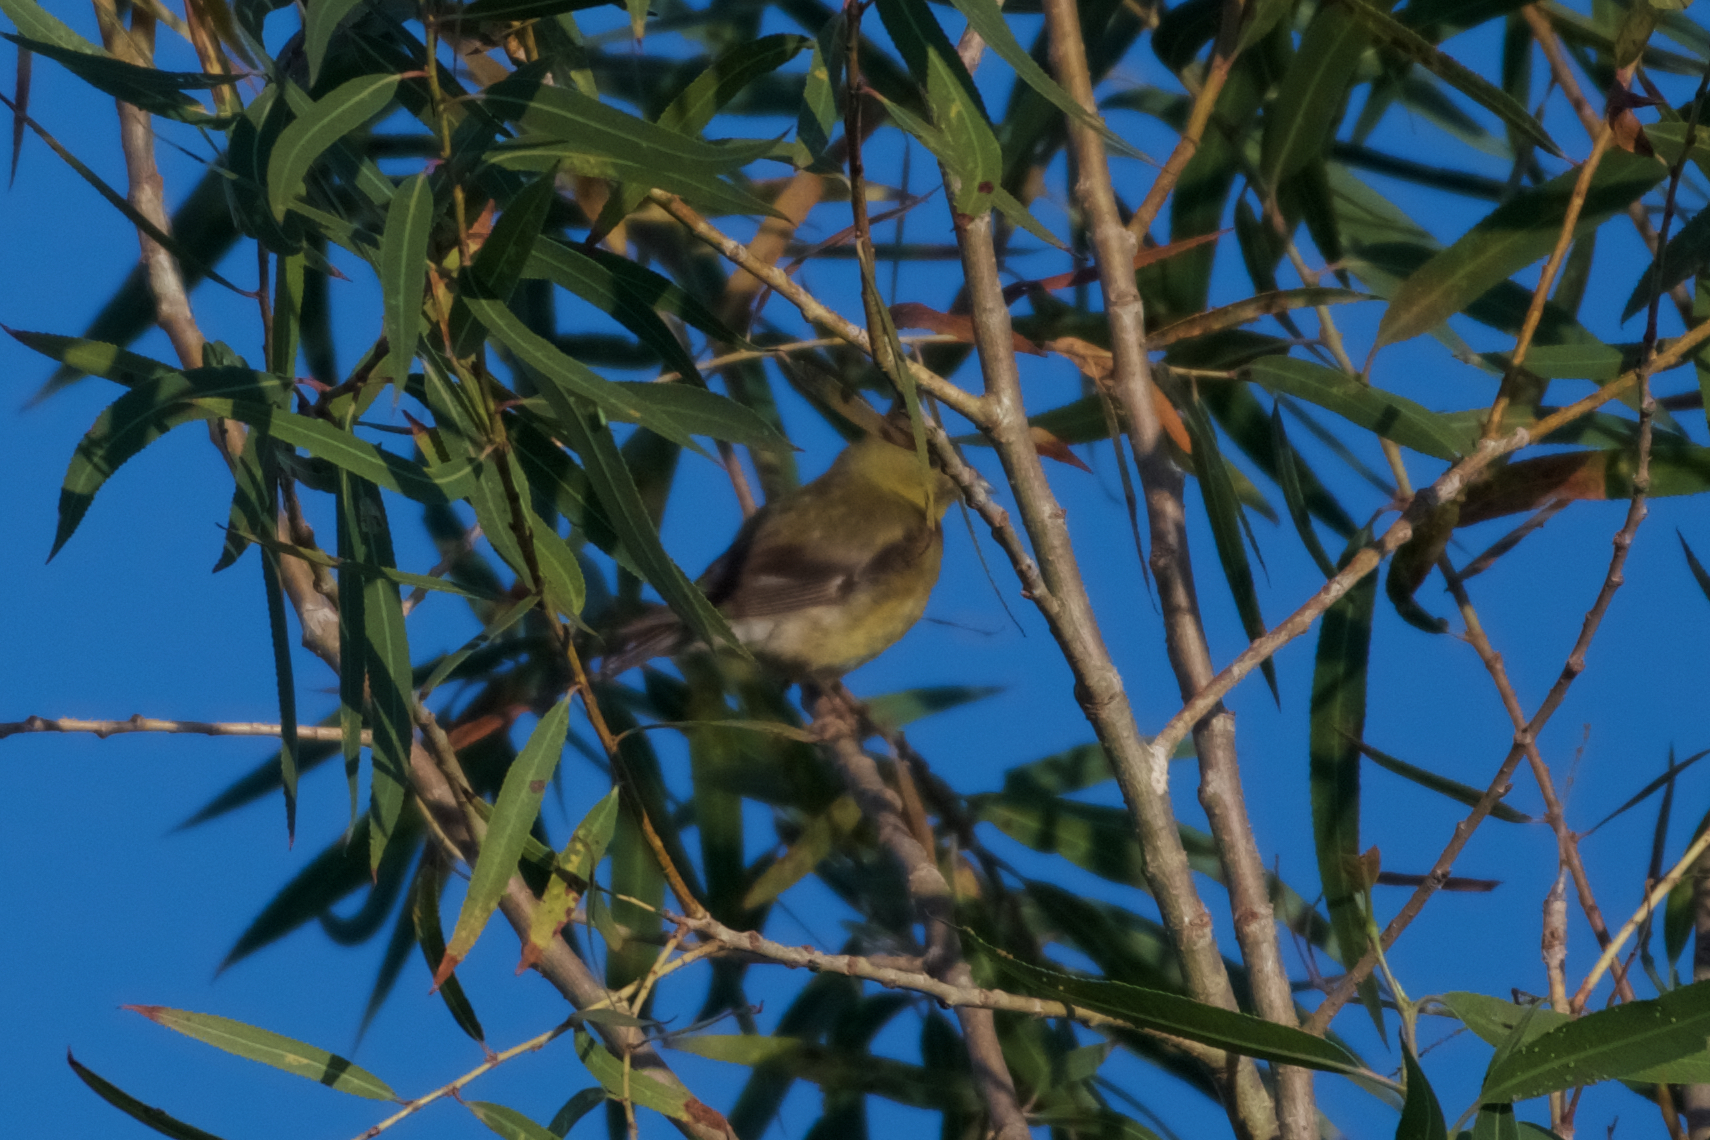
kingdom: Animalia
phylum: Chordata
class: Aves
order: Passeriformes
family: Fringillidae
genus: Spinus
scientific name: Spinus psaltria
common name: Lesser goldfinch
